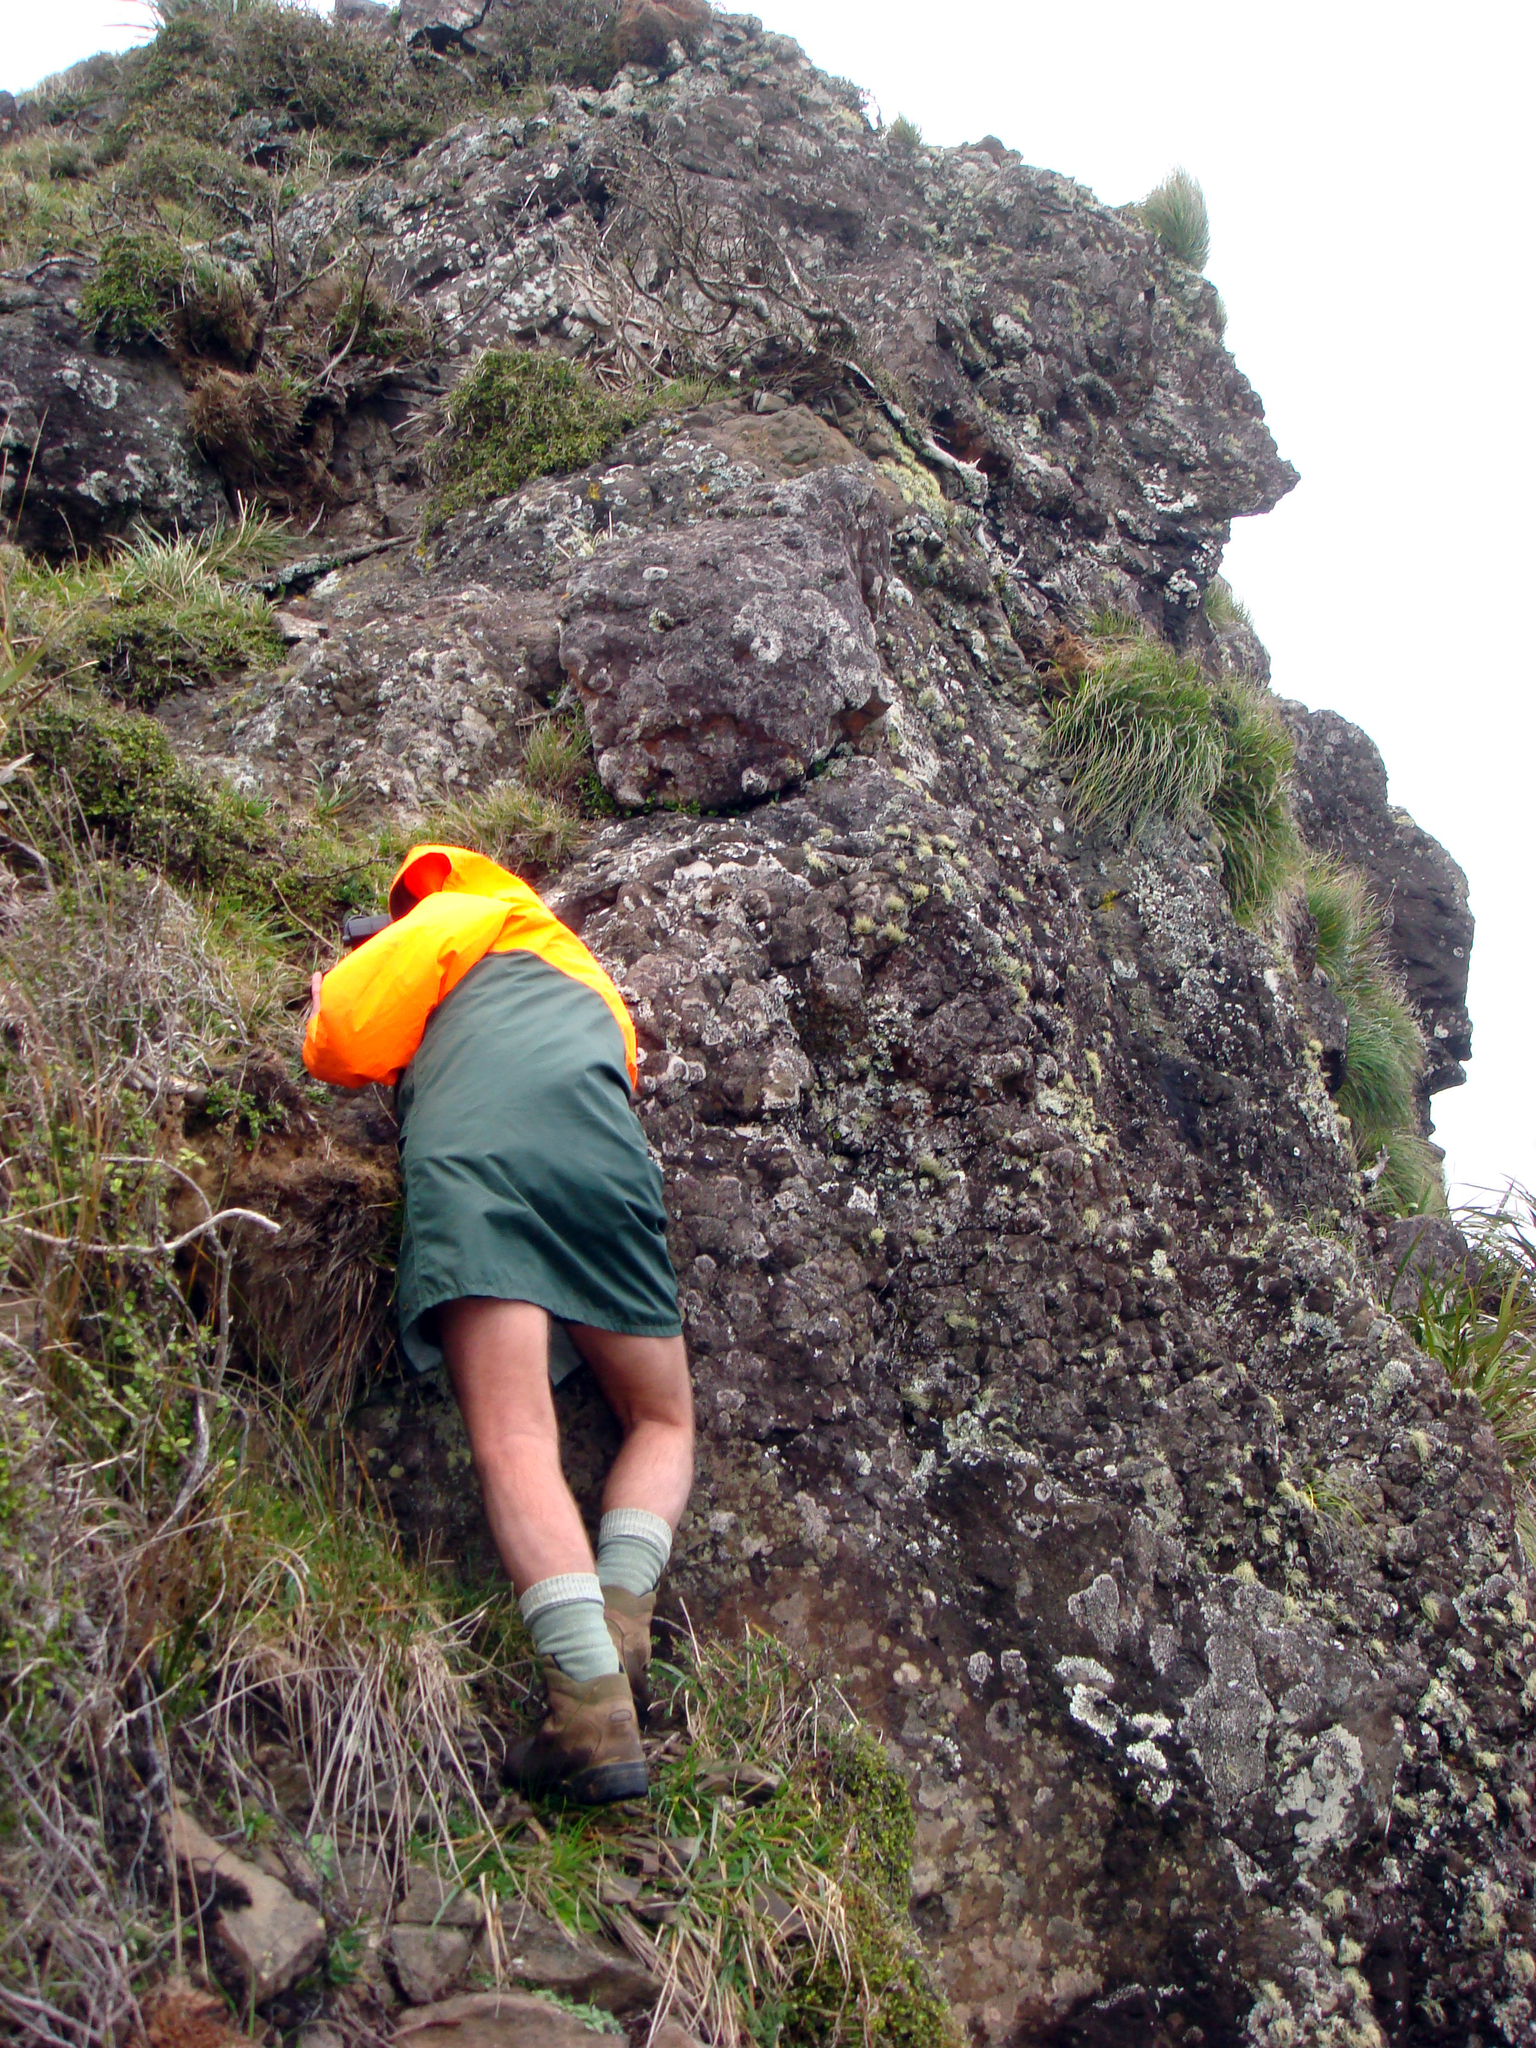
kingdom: Plantae
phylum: Tracheophyta
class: Magnoliopsida
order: Malvales
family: Thymelaeaceae
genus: Pimelea
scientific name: Pimelea eremitica
